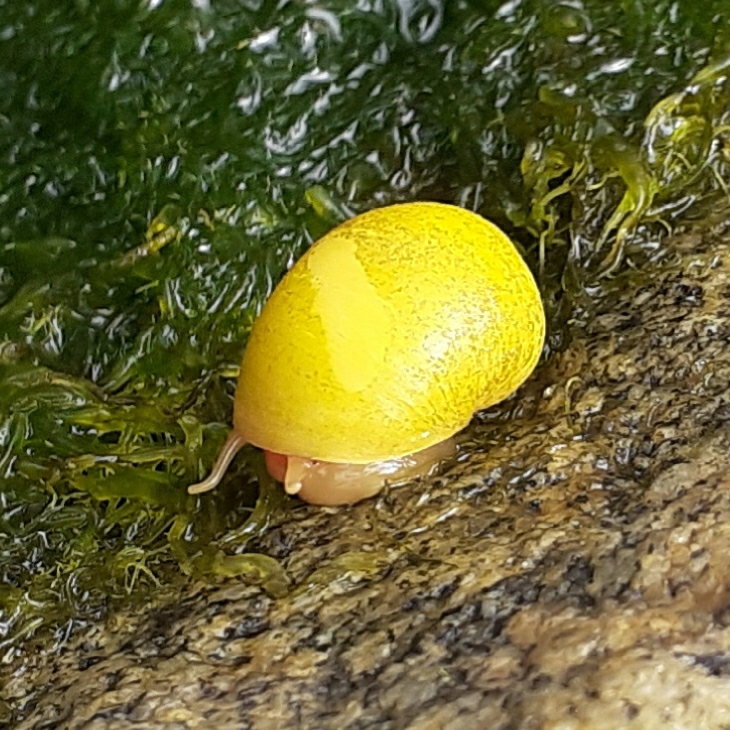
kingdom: Animalia
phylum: Mollusca
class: Gastropoda
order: Littorinimorpha
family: Littorinidae
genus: Littorina
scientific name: Littorina obtusata
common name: Flat periwinkle
